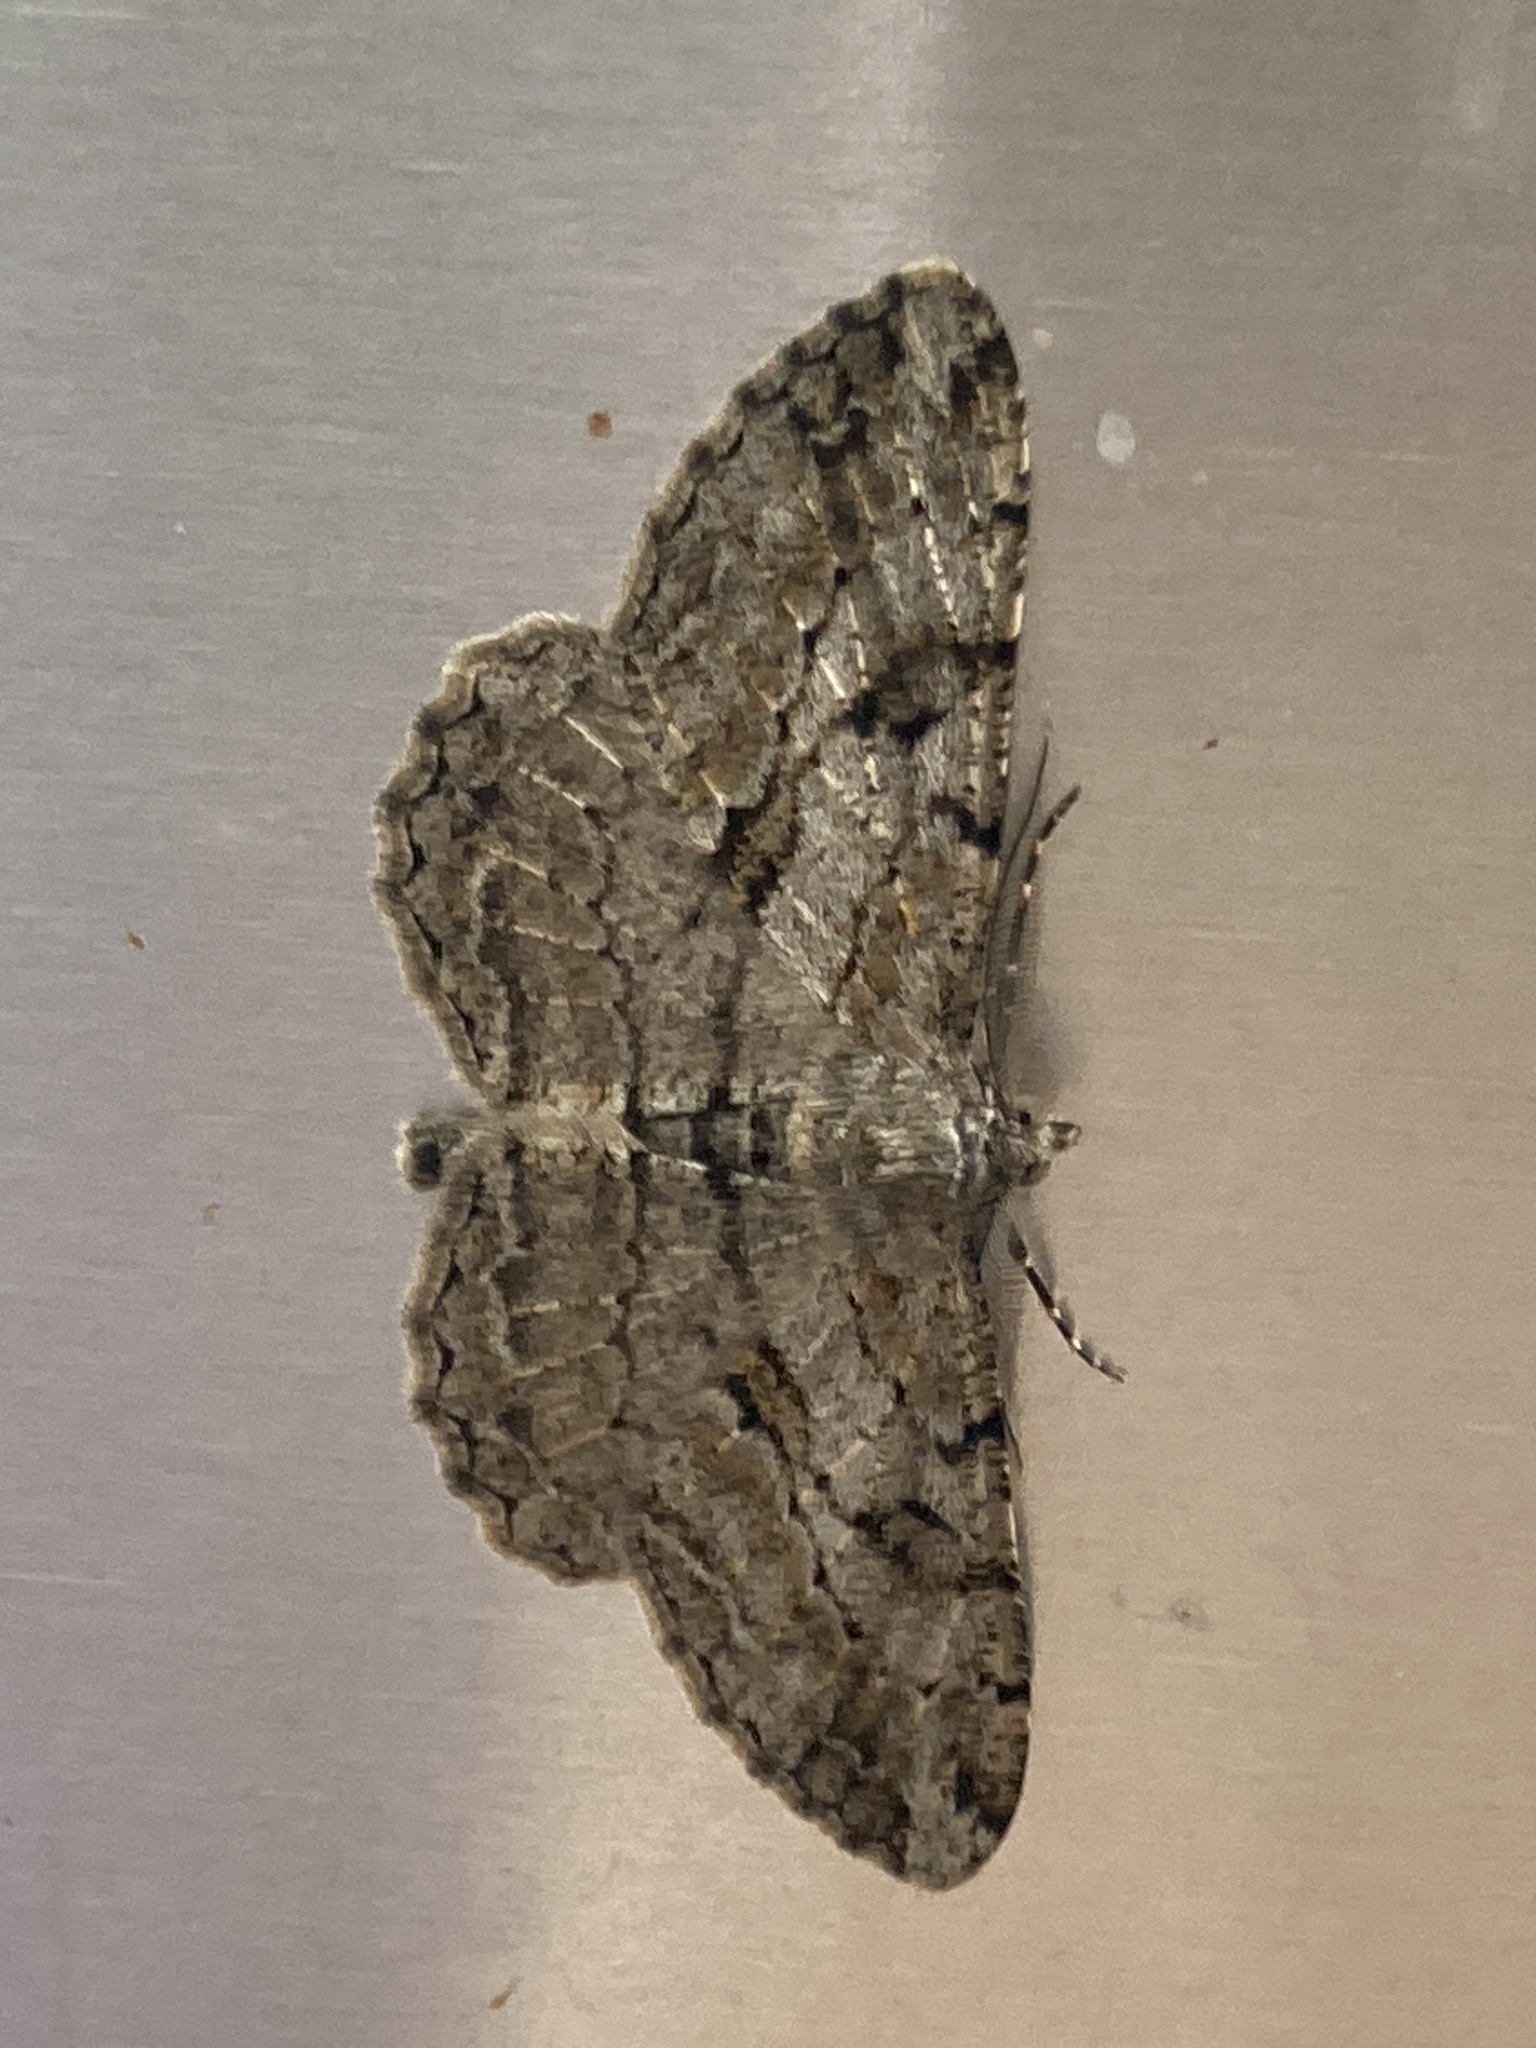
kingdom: Animalia
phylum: Arthropoda
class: Insecta
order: Lepidoptera
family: Geometridae
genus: Peribatodes
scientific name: Peribatodes rhomboidaria
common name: Willow beauty
